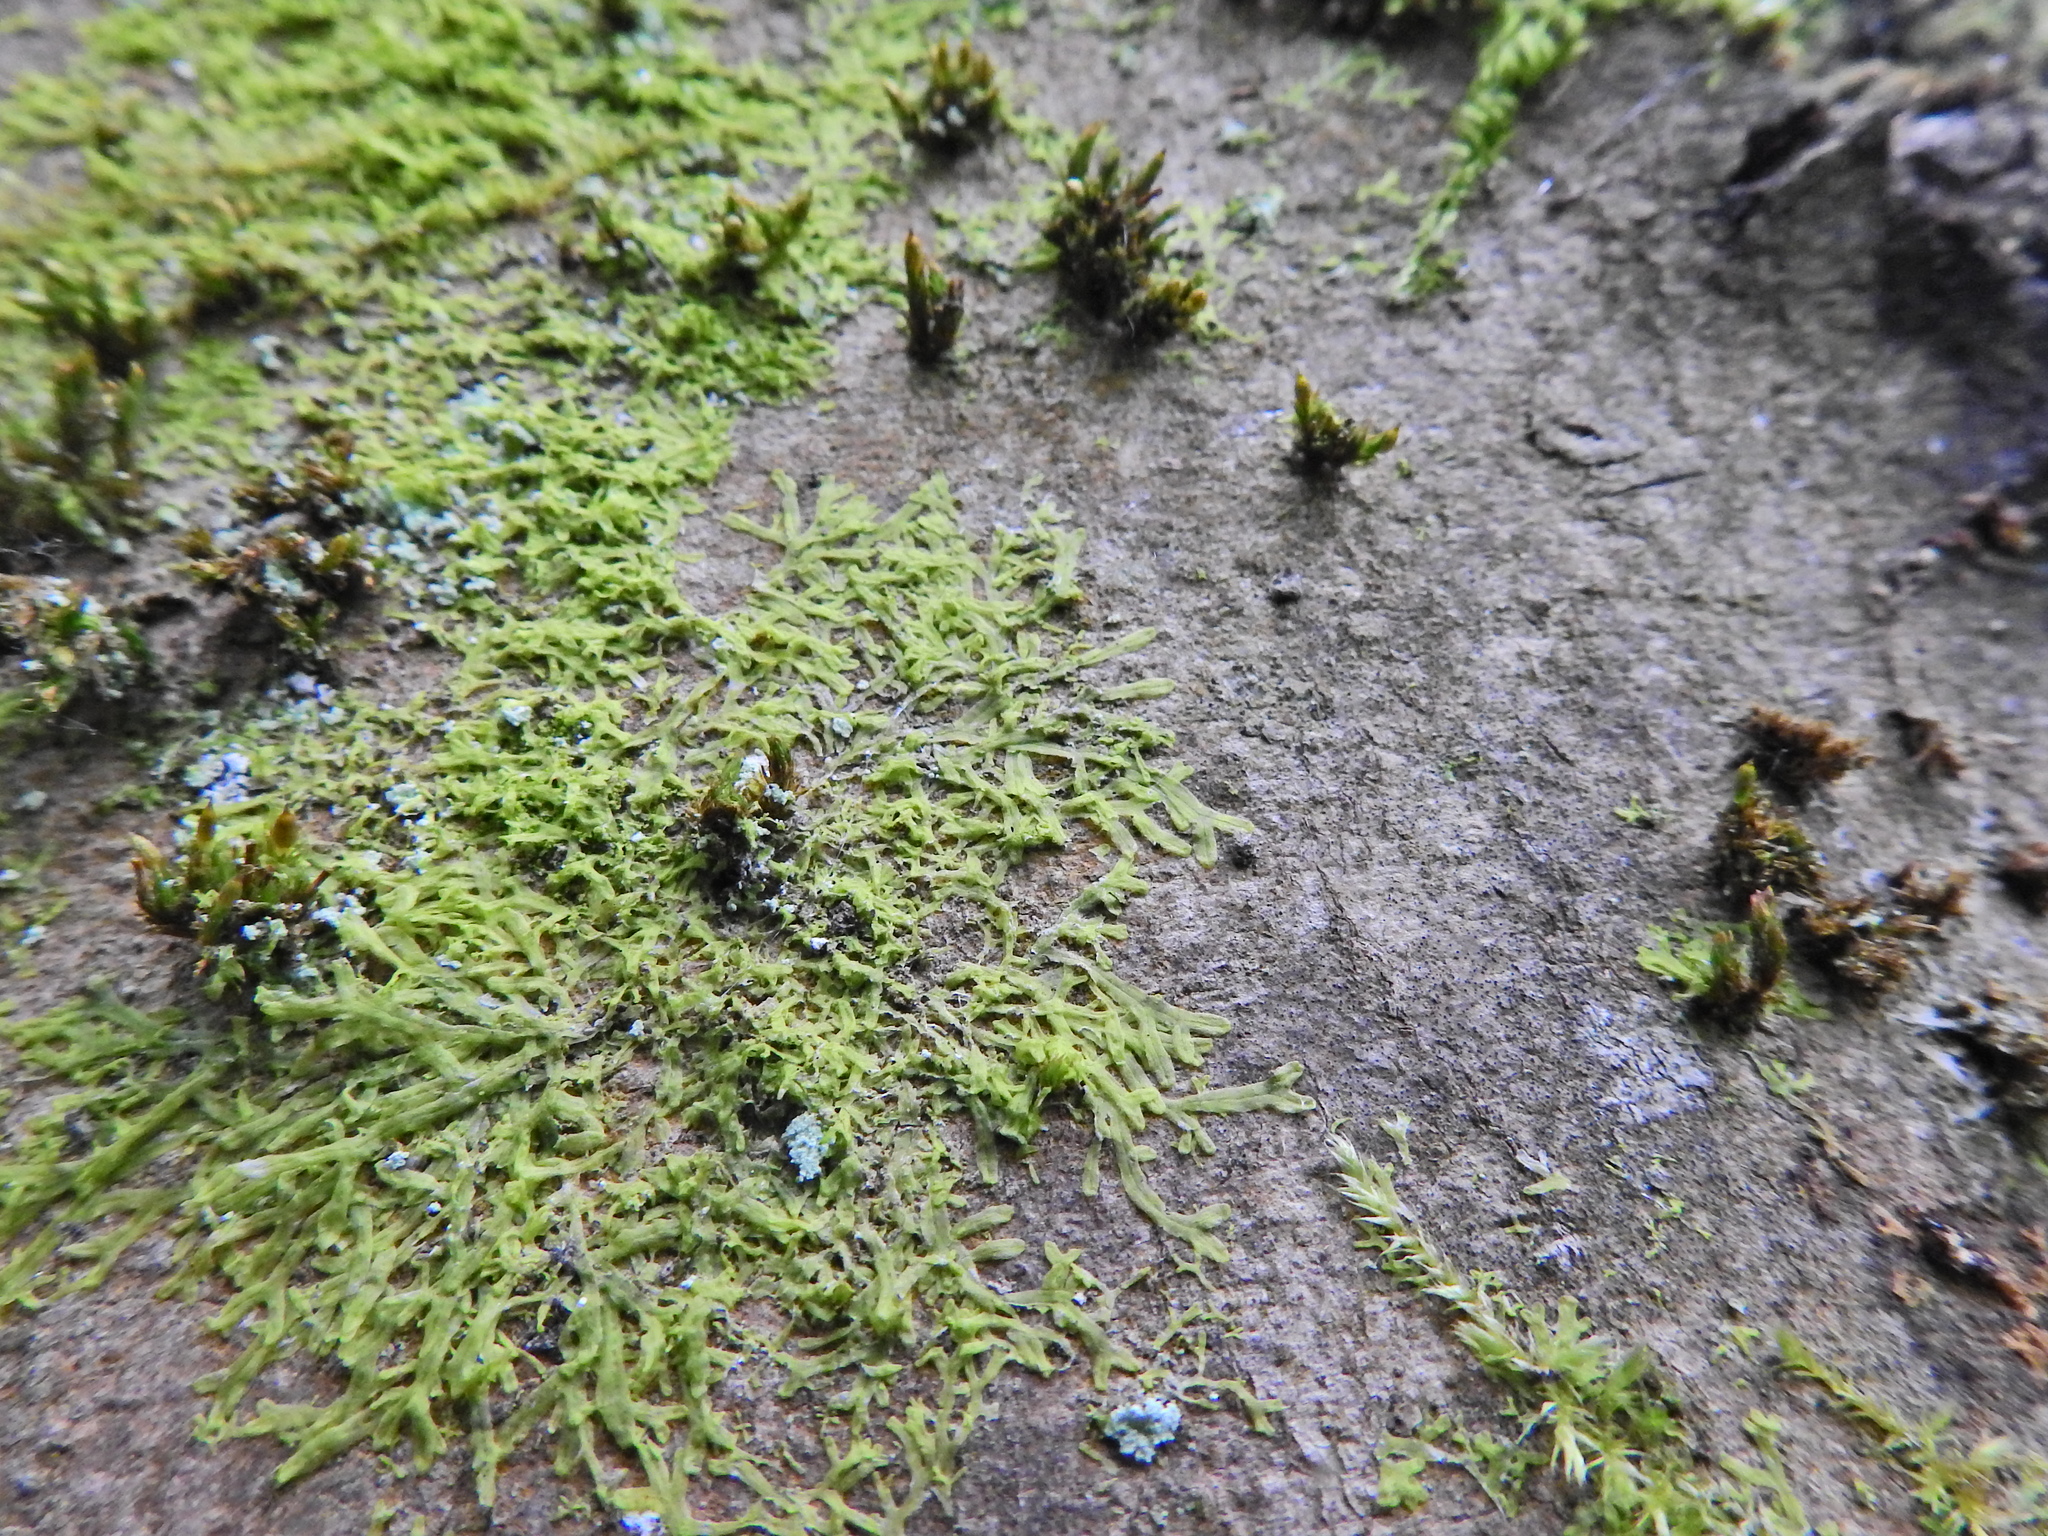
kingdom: Plantae
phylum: Marchantiophyta
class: Jungermanniopsida
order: Metzgeriales
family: Metzgeriaceae
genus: Metzgeria
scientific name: Metzgeria furcata
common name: Forked veilwort
